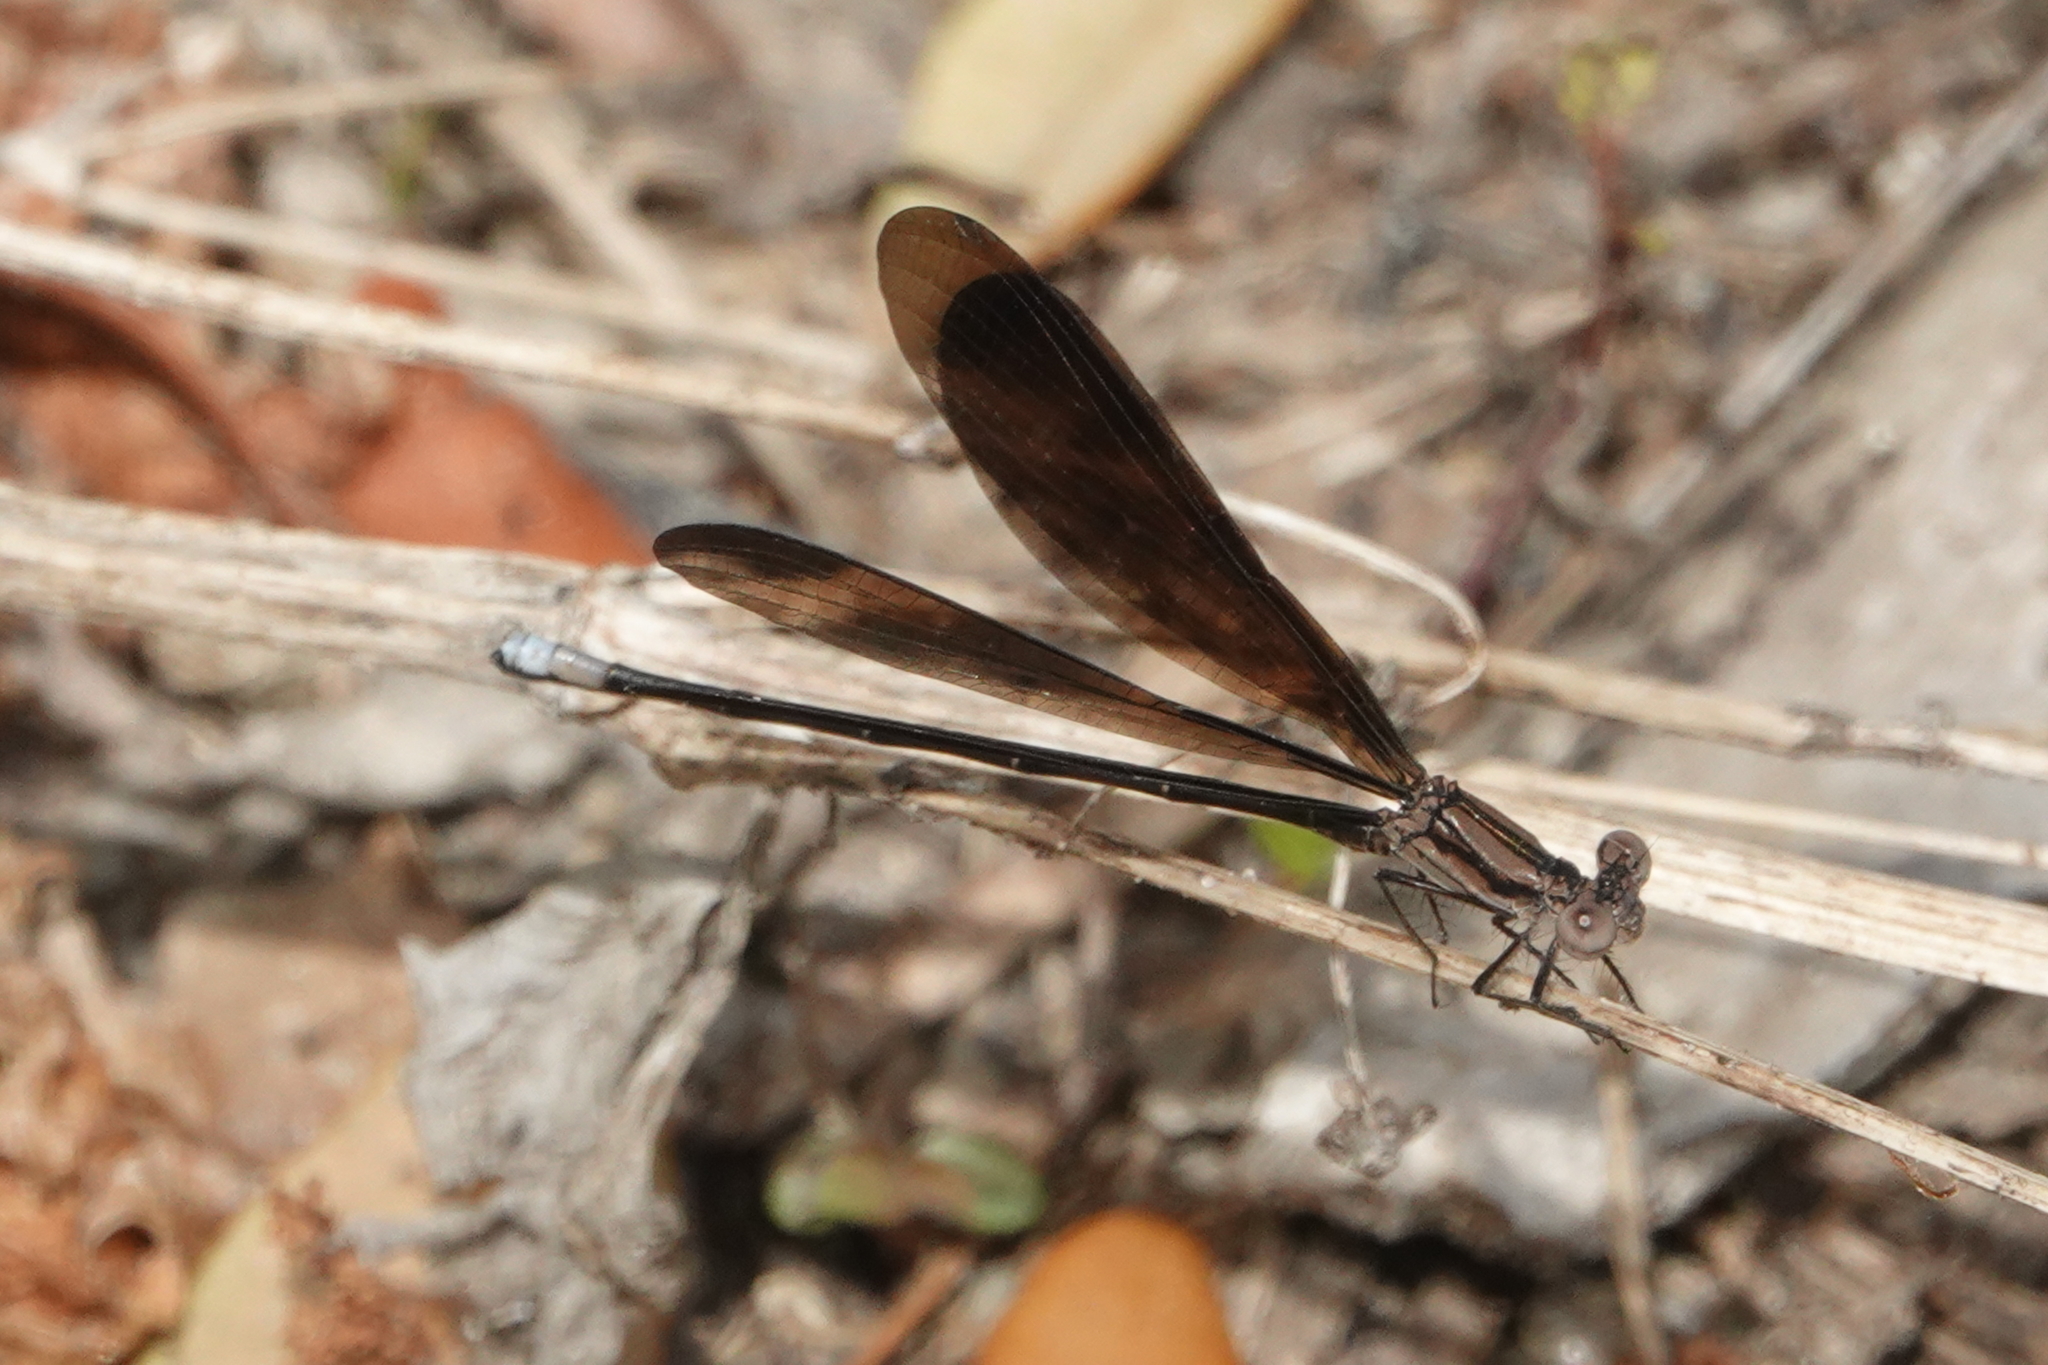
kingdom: Animalia
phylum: Arthropoda
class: Insecta
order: Odonata
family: Coenagrionidae
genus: Argia
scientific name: Argia fumipennis
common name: Variable dancer
